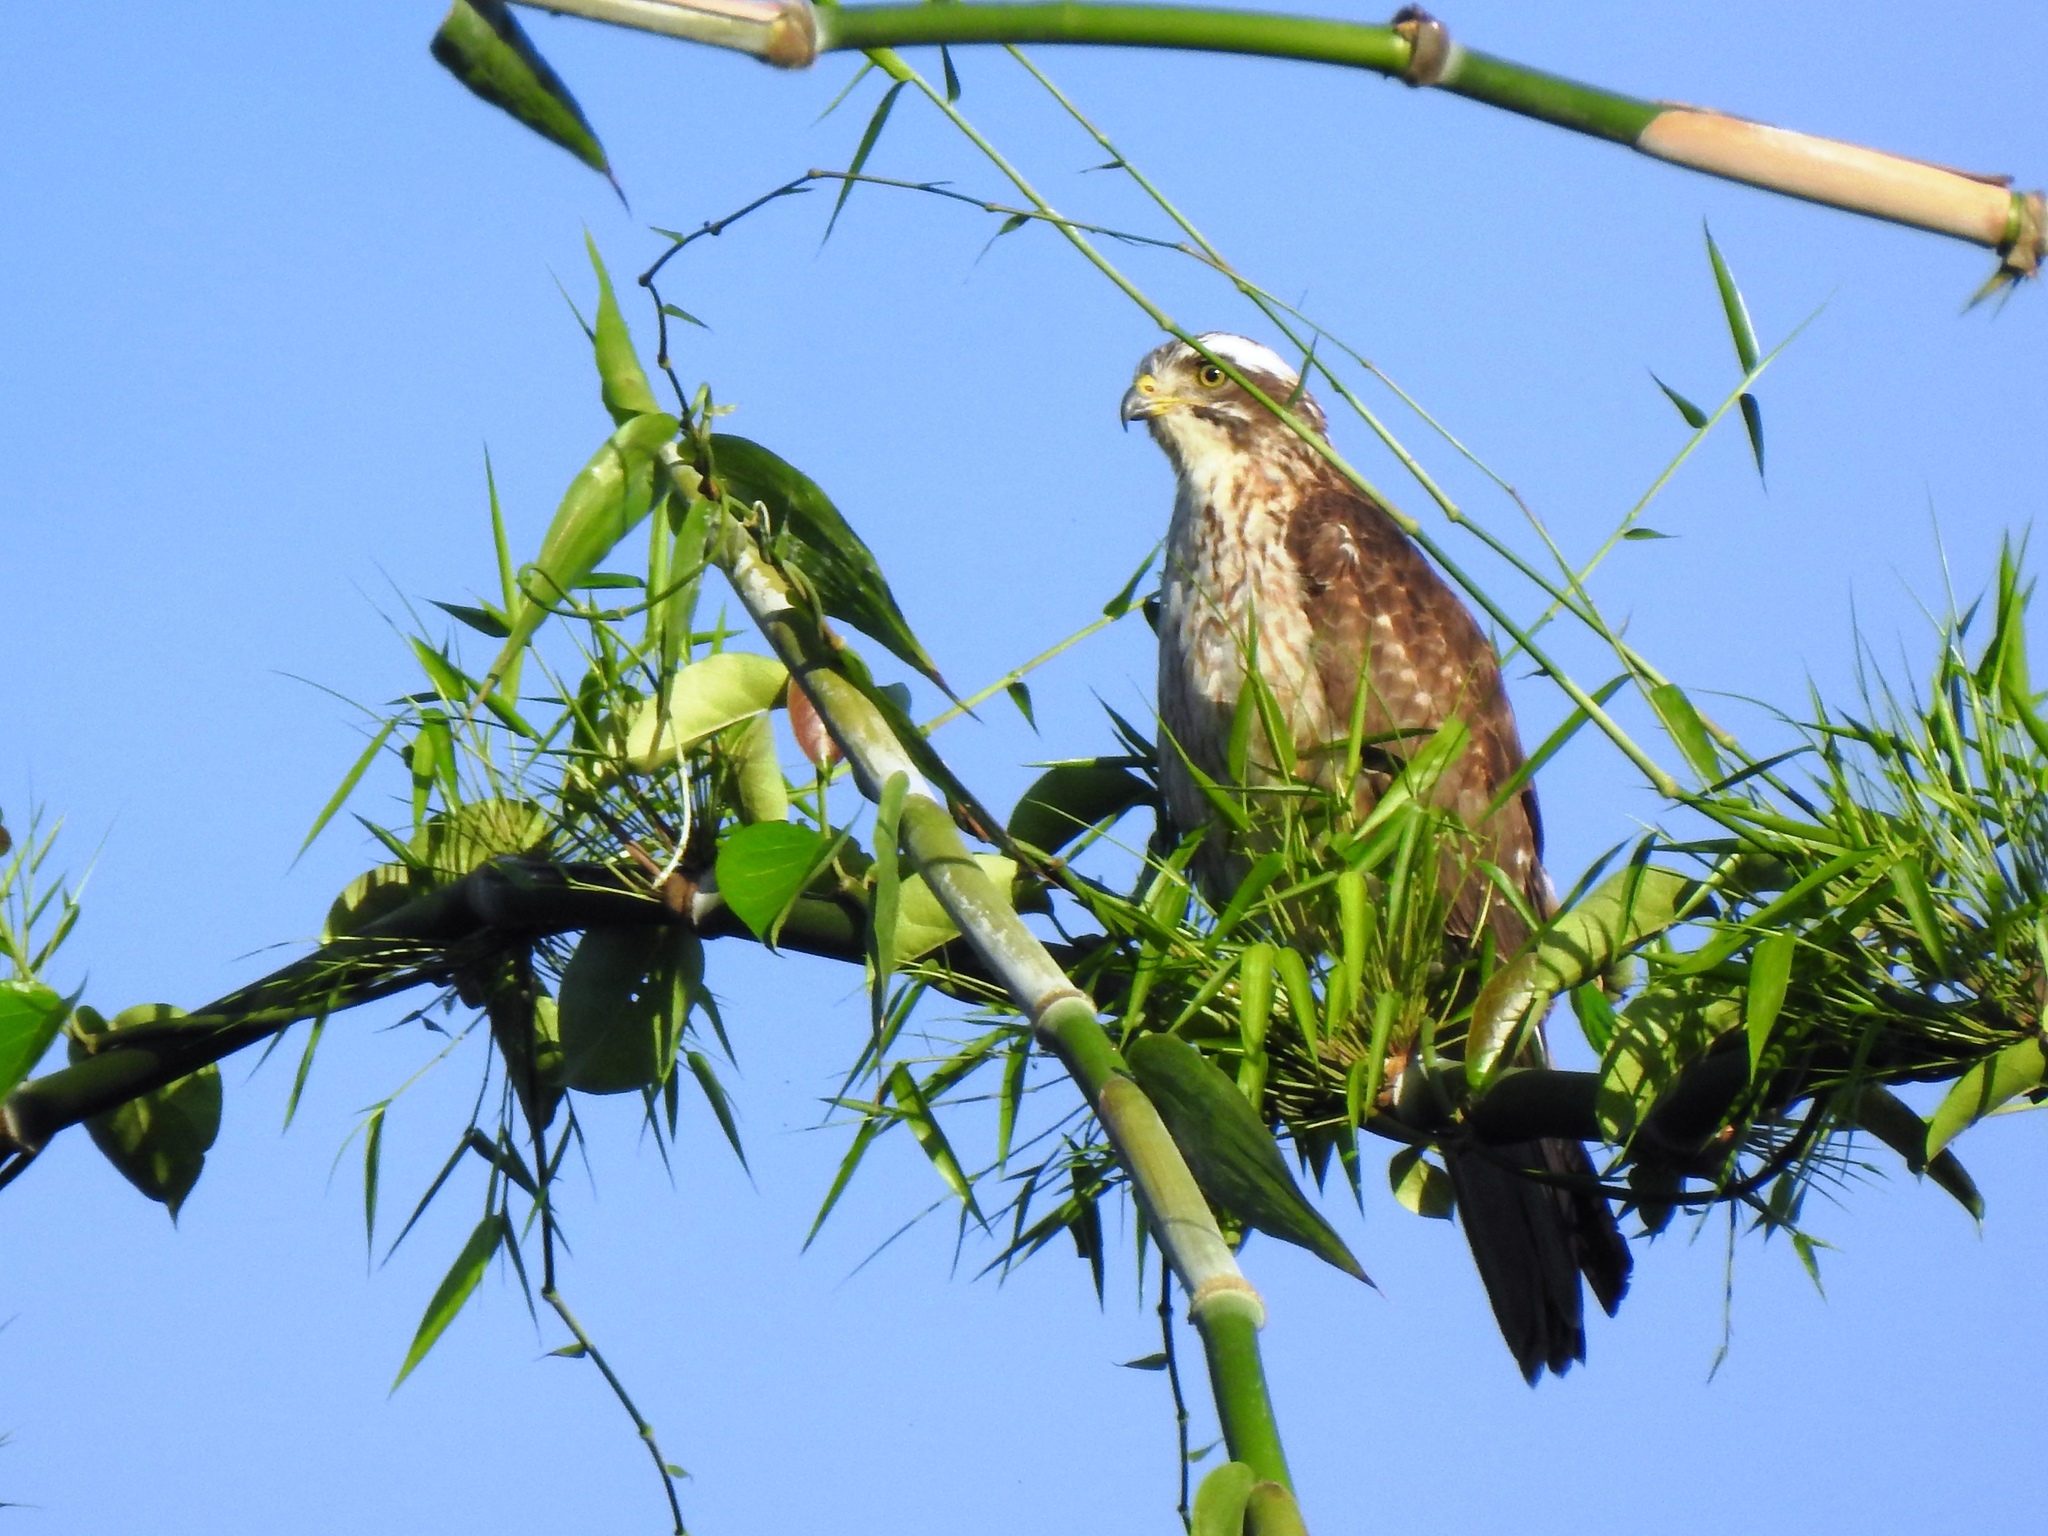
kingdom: Animalia
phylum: Chordata
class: Aves
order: Accipitriformes
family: Accipitridae
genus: Butastur
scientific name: Butastur indicus
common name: Grey-faced buzzard
